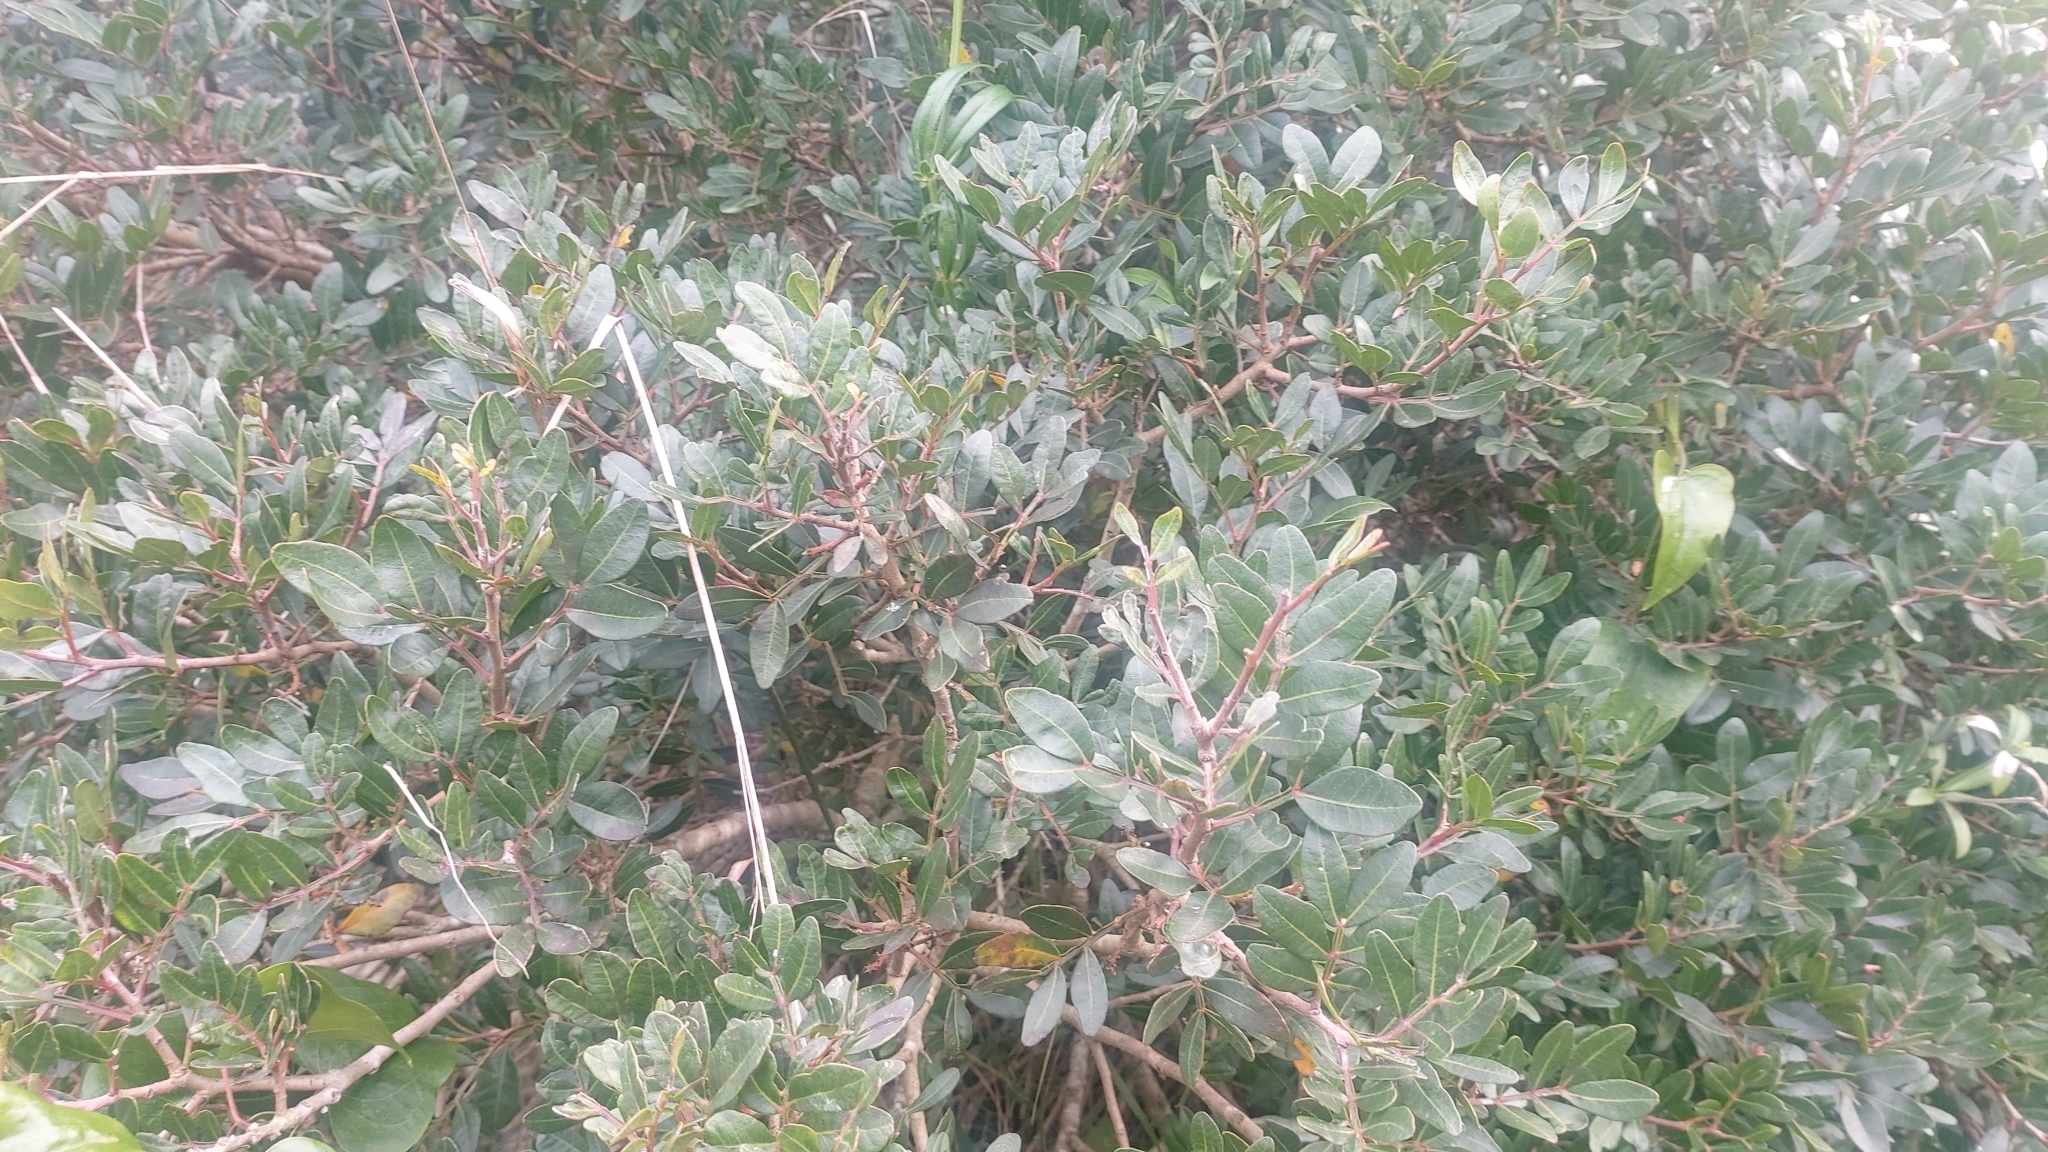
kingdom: Animalia
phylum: Arthropoda
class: Insecta
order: Hemiptera
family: Aphididae
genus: Aploneura
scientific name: Aploneura lentisci
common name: Mealy grass root aphid
